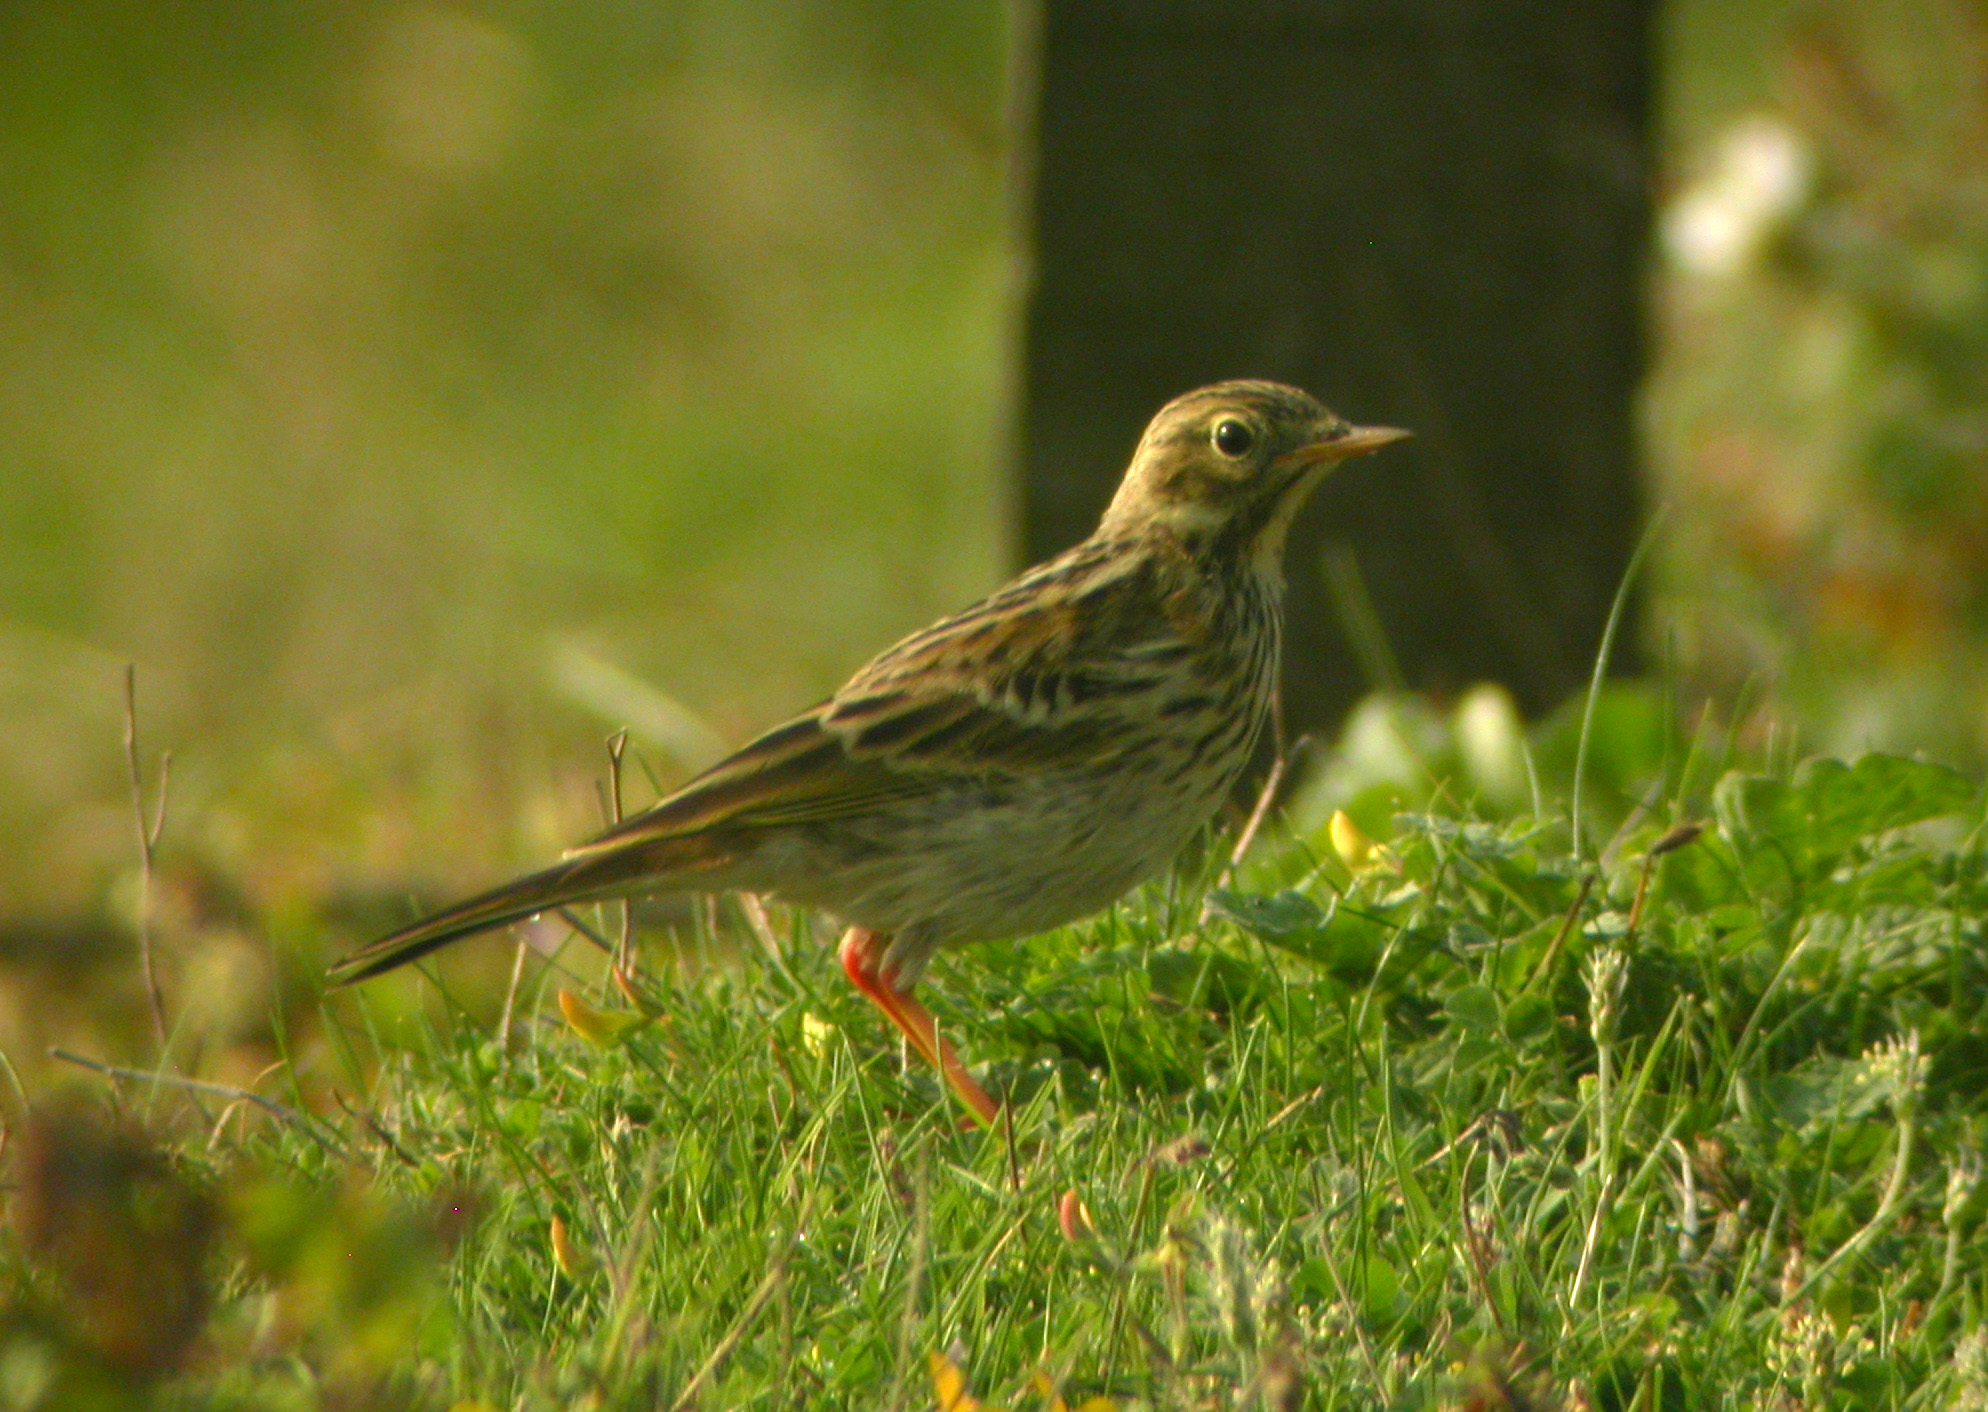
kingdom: Animalia
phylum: Chordata
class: Aves
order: Passeriformes
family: Motacillidae
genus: Anthus
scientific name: Anthus pratensis
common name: Meadow pipit
